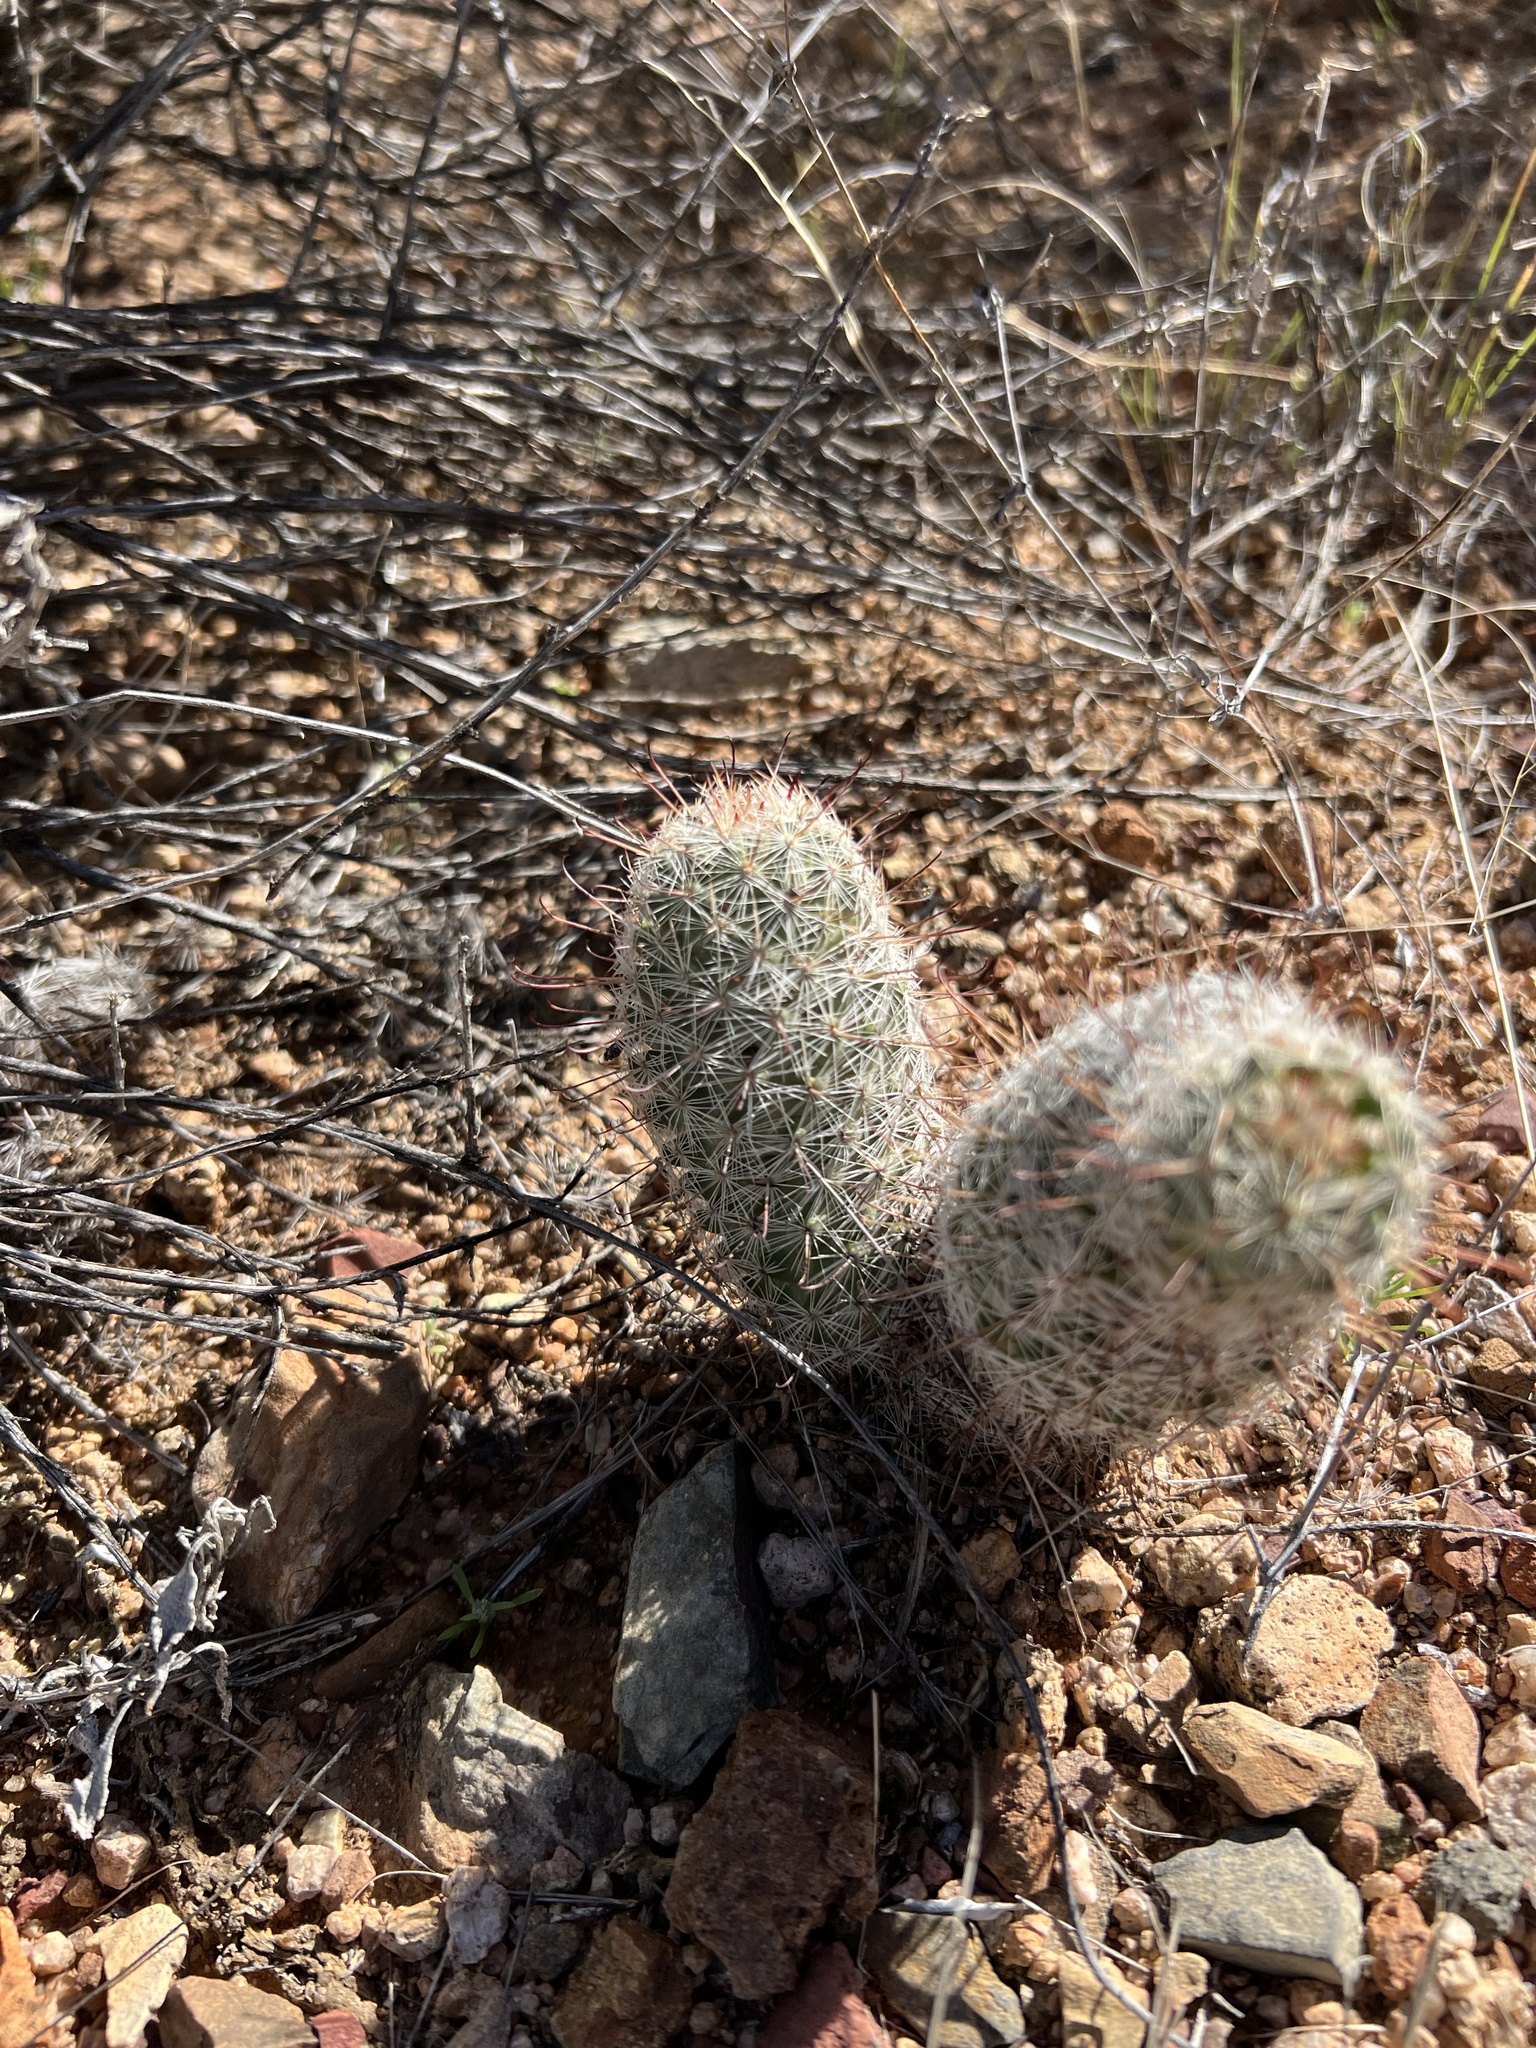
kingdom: Plantae
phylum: Tracheophyta
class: Magnoliopsida
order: Caryophyllales
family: Cactaceae
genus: Cochemiea
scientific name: Cochemiea grahamii
